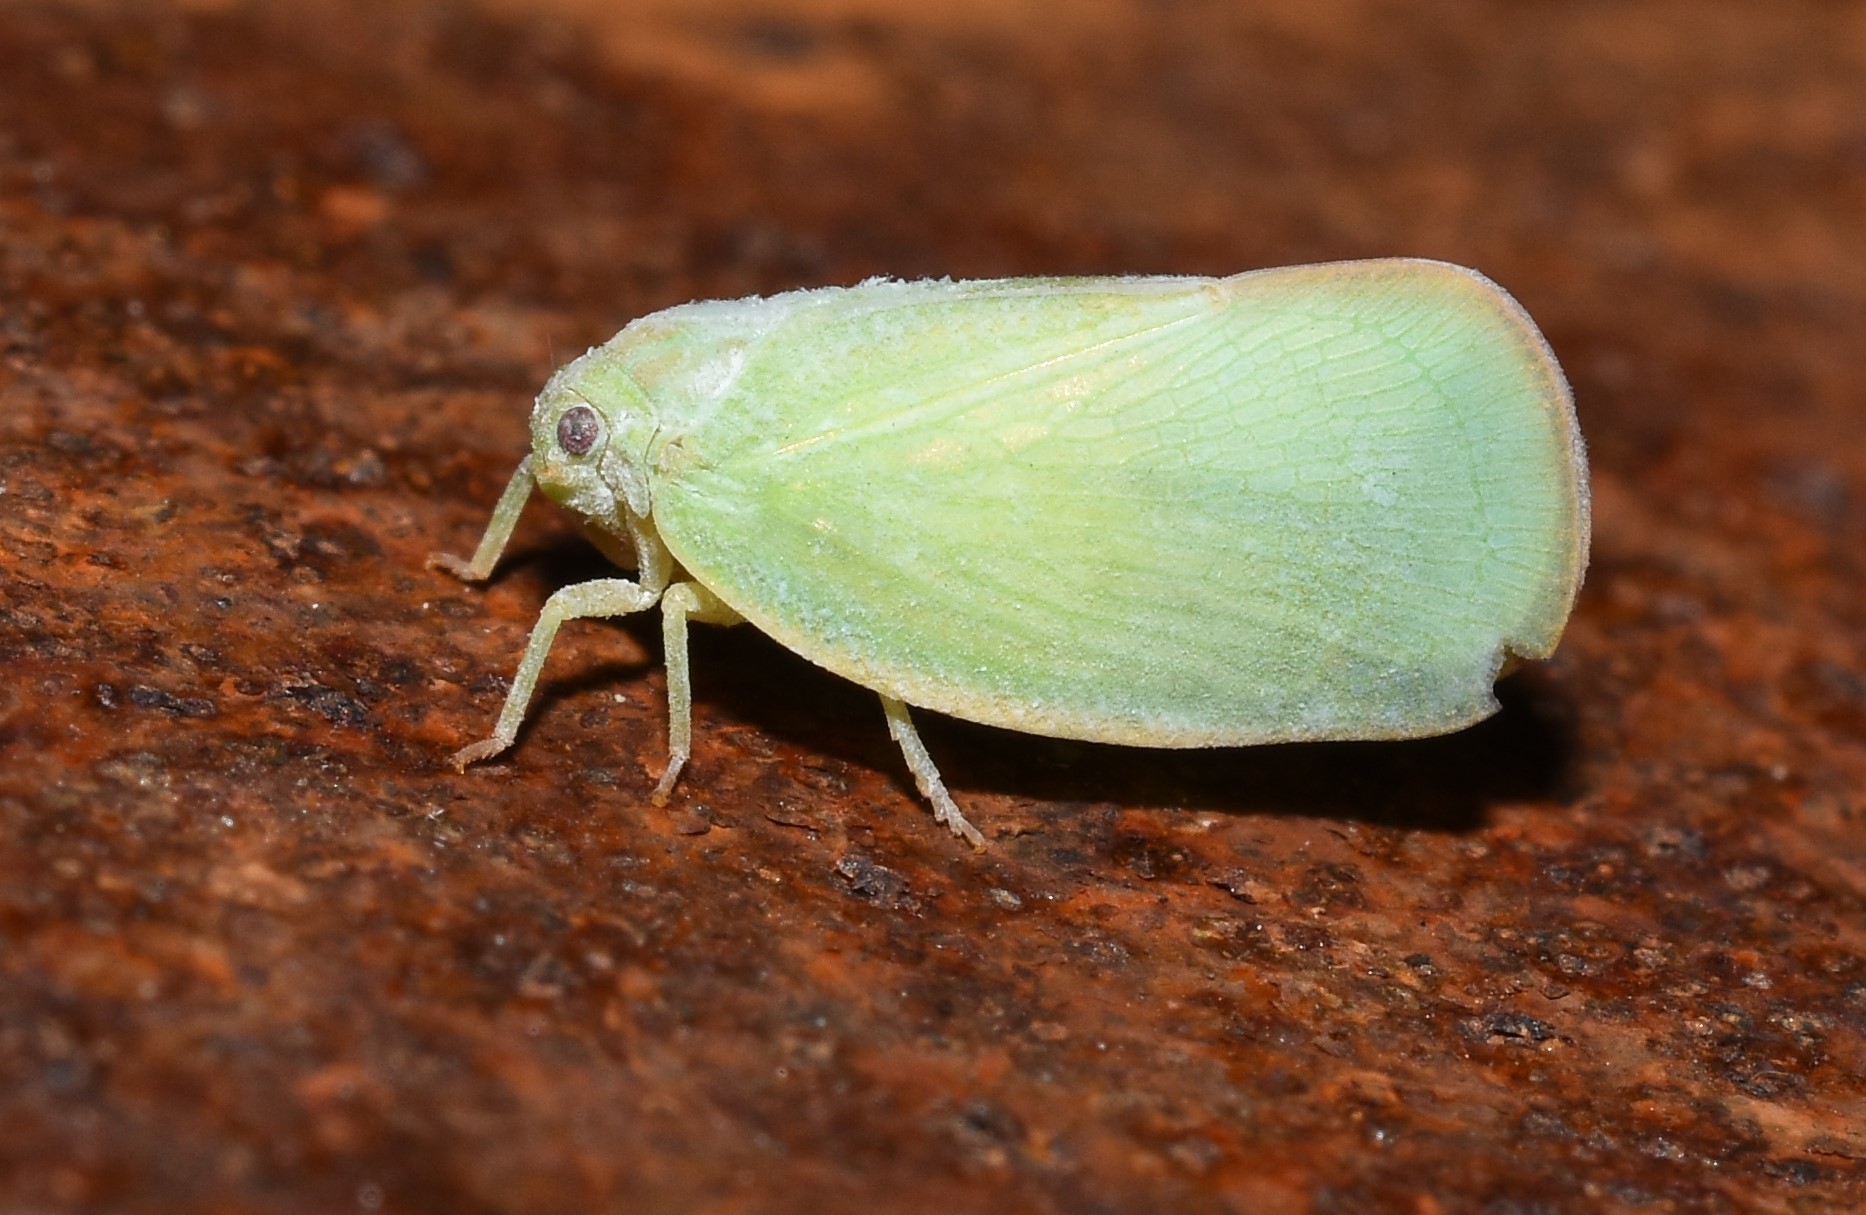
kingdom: Animalia
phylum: Arthropoda
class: Insecta
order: Hemiptera
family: Flatidae
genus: Ormenoides
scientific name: Ormenoides venusta
